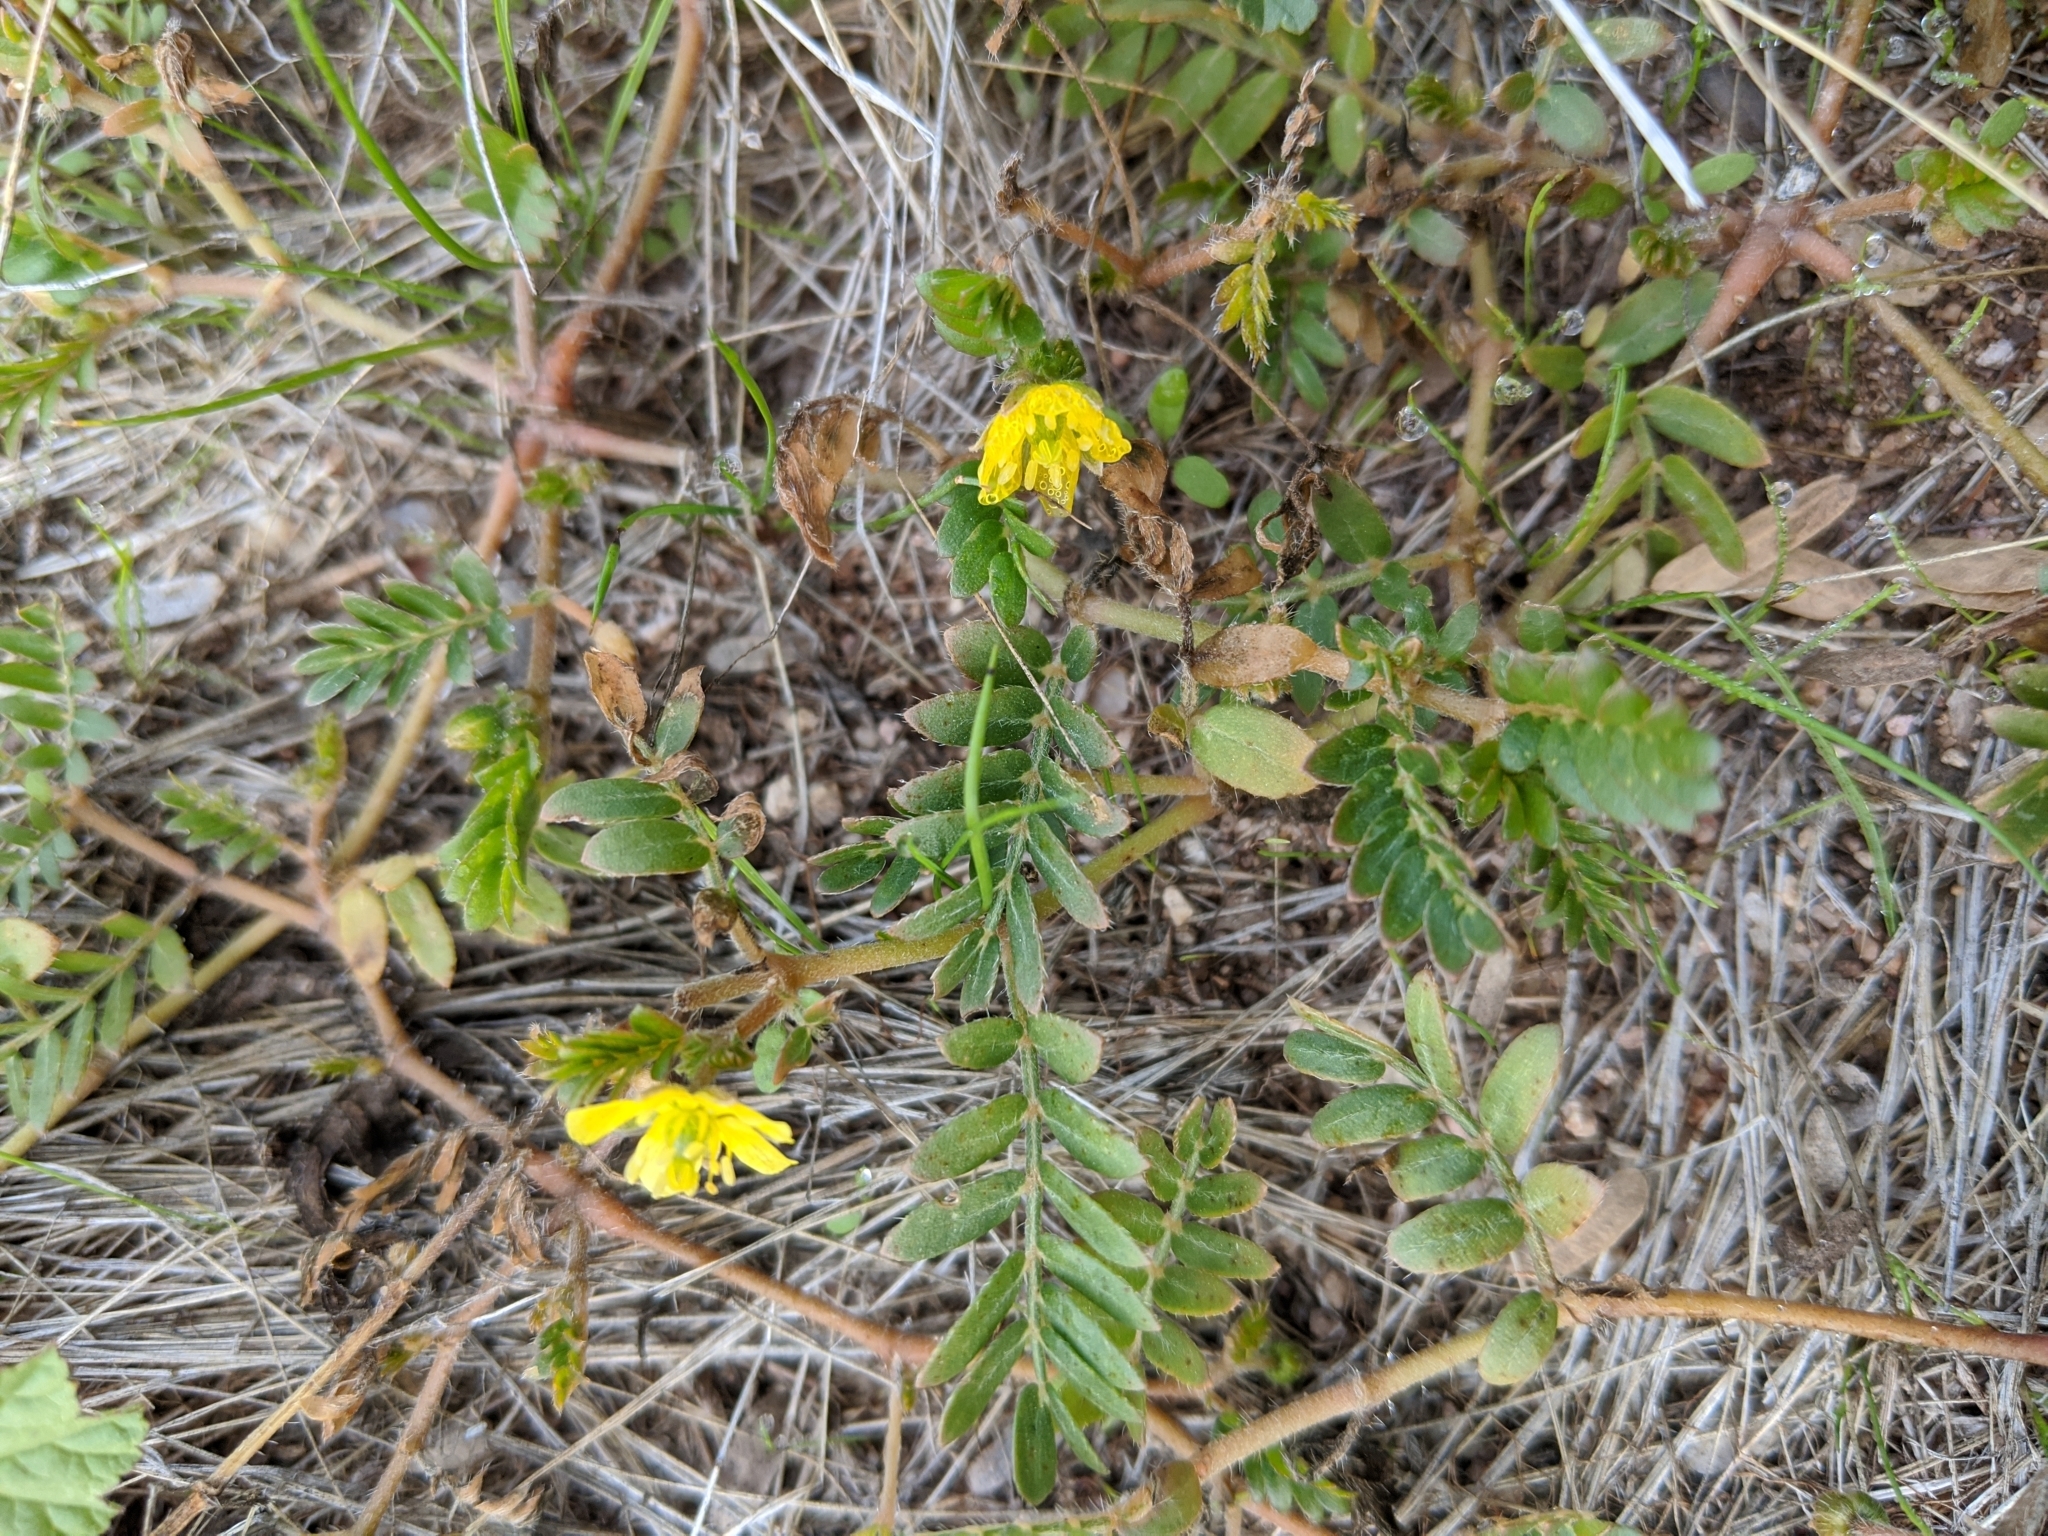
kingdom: Plantae
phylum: Tracheophyta
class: Magnoliopsida
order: Zygophyllales
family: Zygophyllaceae
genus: Tribulus
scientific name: Tribulus terrestris
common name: Puncturevine
